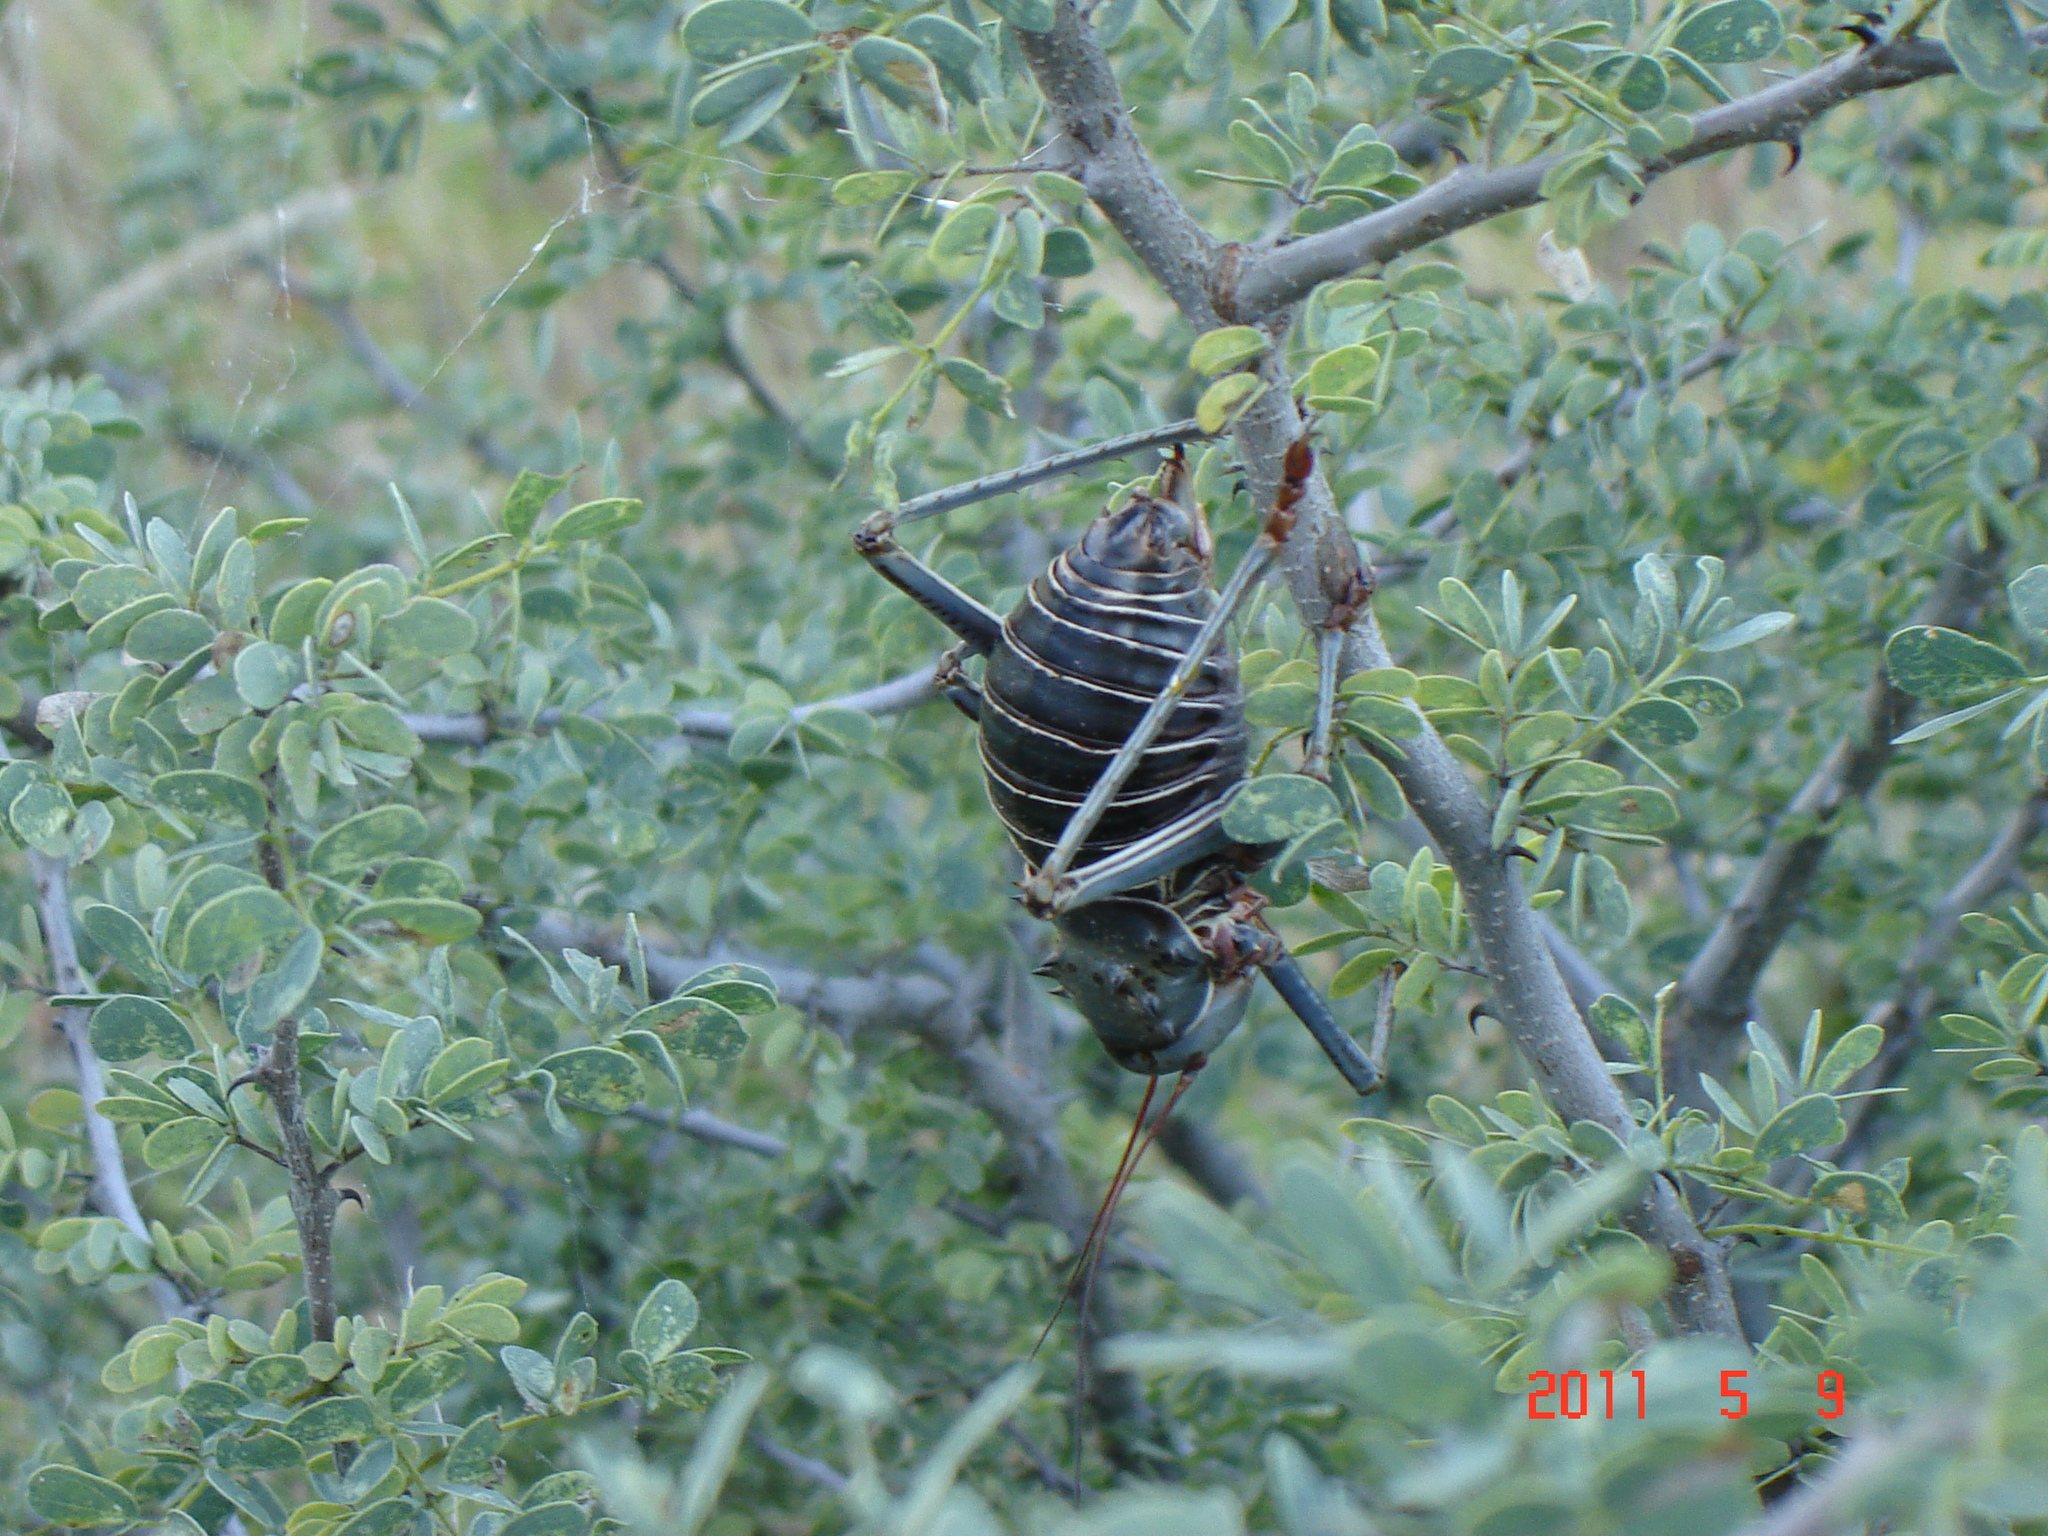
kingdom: Animalia
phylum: Arthropoda
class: Insecta
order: Orthoptera
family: Tettigoniidae
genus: Acanthoplus
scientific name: Acanthoplus discoidalis
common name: Armoured katydid
